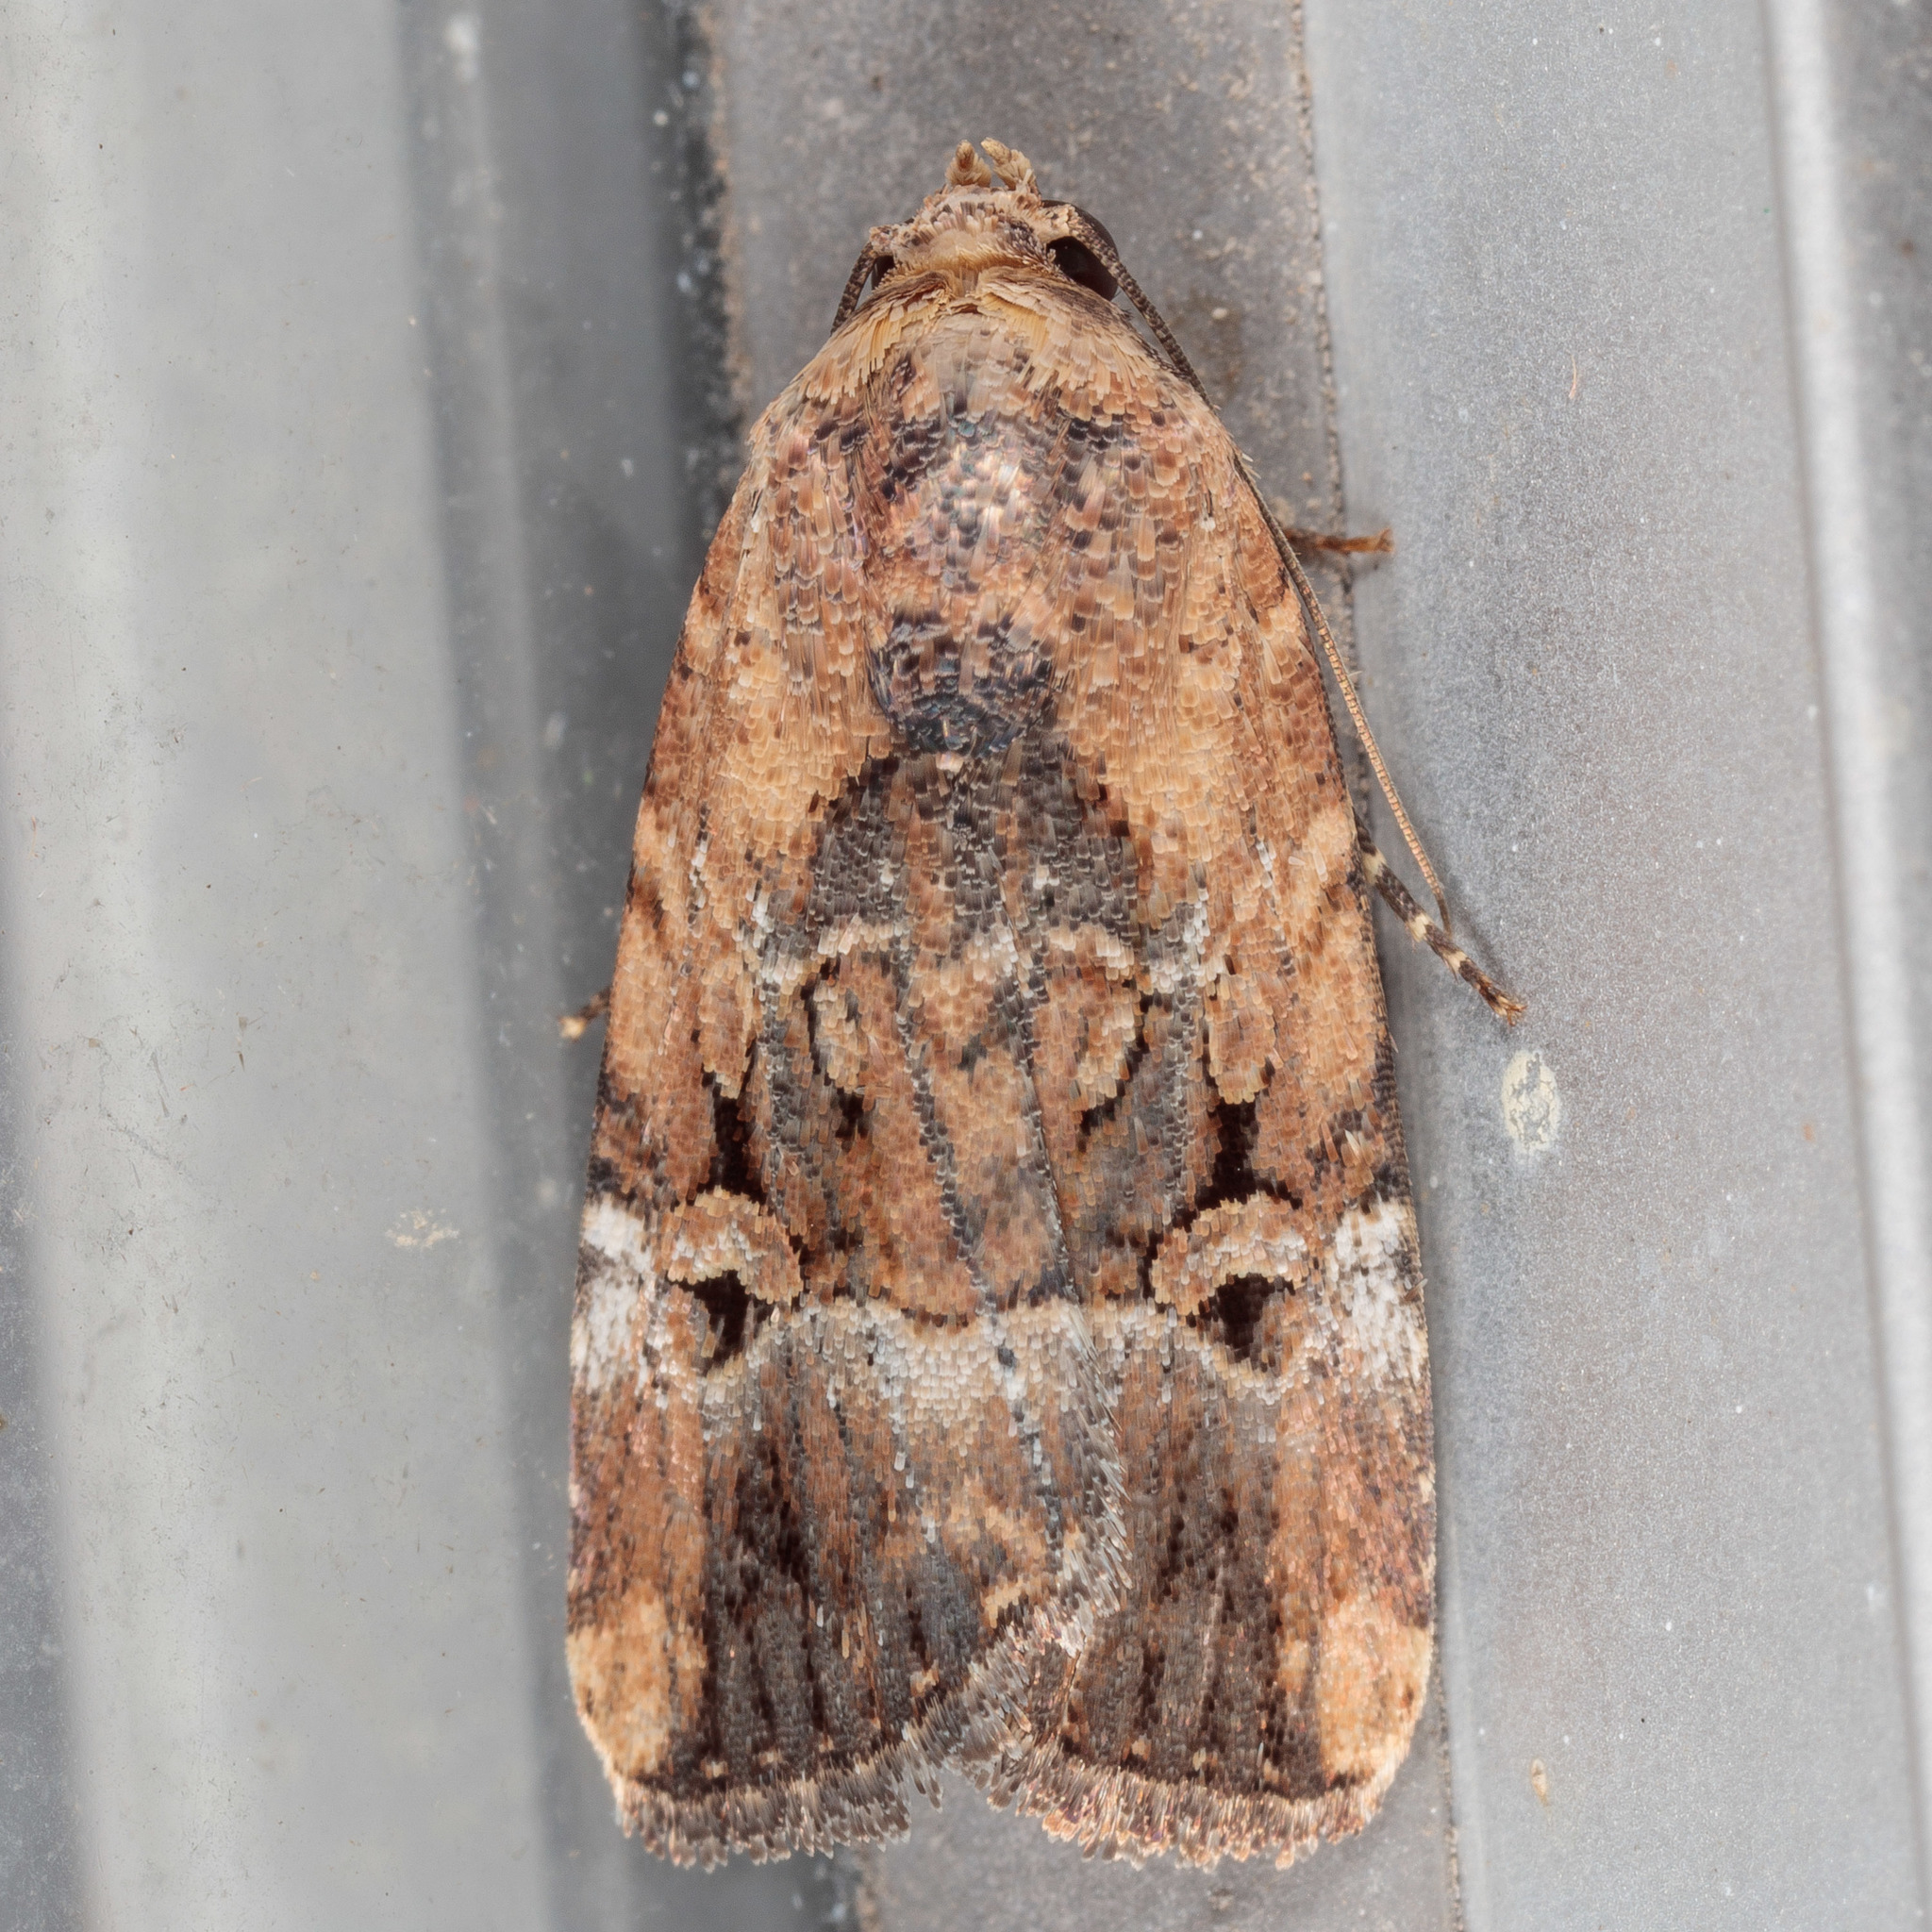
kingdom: Animalia
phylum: Arthropoda
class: Insecta
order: Lepidoptera
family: Noctuidae
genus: Elaphria
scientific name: Elaphria chalcedonia
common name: Chalcedony midget
